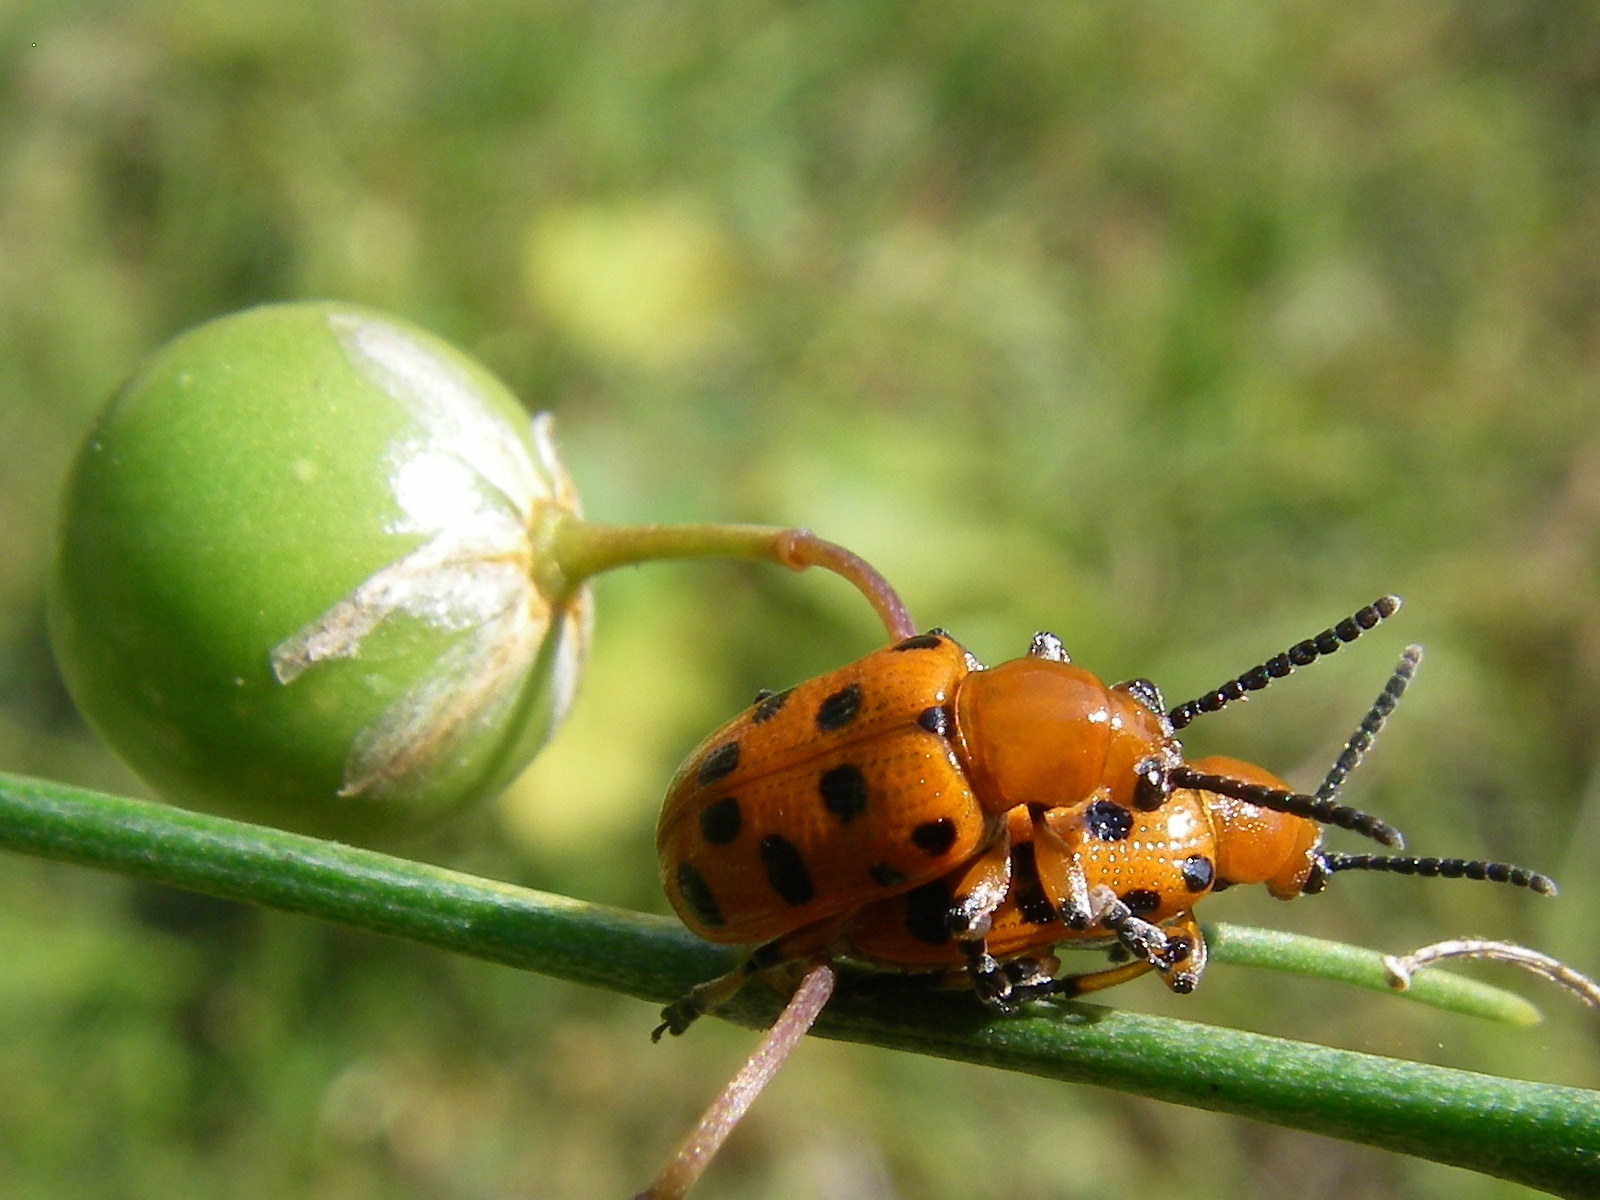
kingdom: Animalia
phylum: Arthropoda
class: Insecta
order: Coleoptera
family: Chrysomelidae
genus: Crioceris
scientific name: Crioceris duodecimpunctata
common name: Twelve-spotted asparagus beetle
